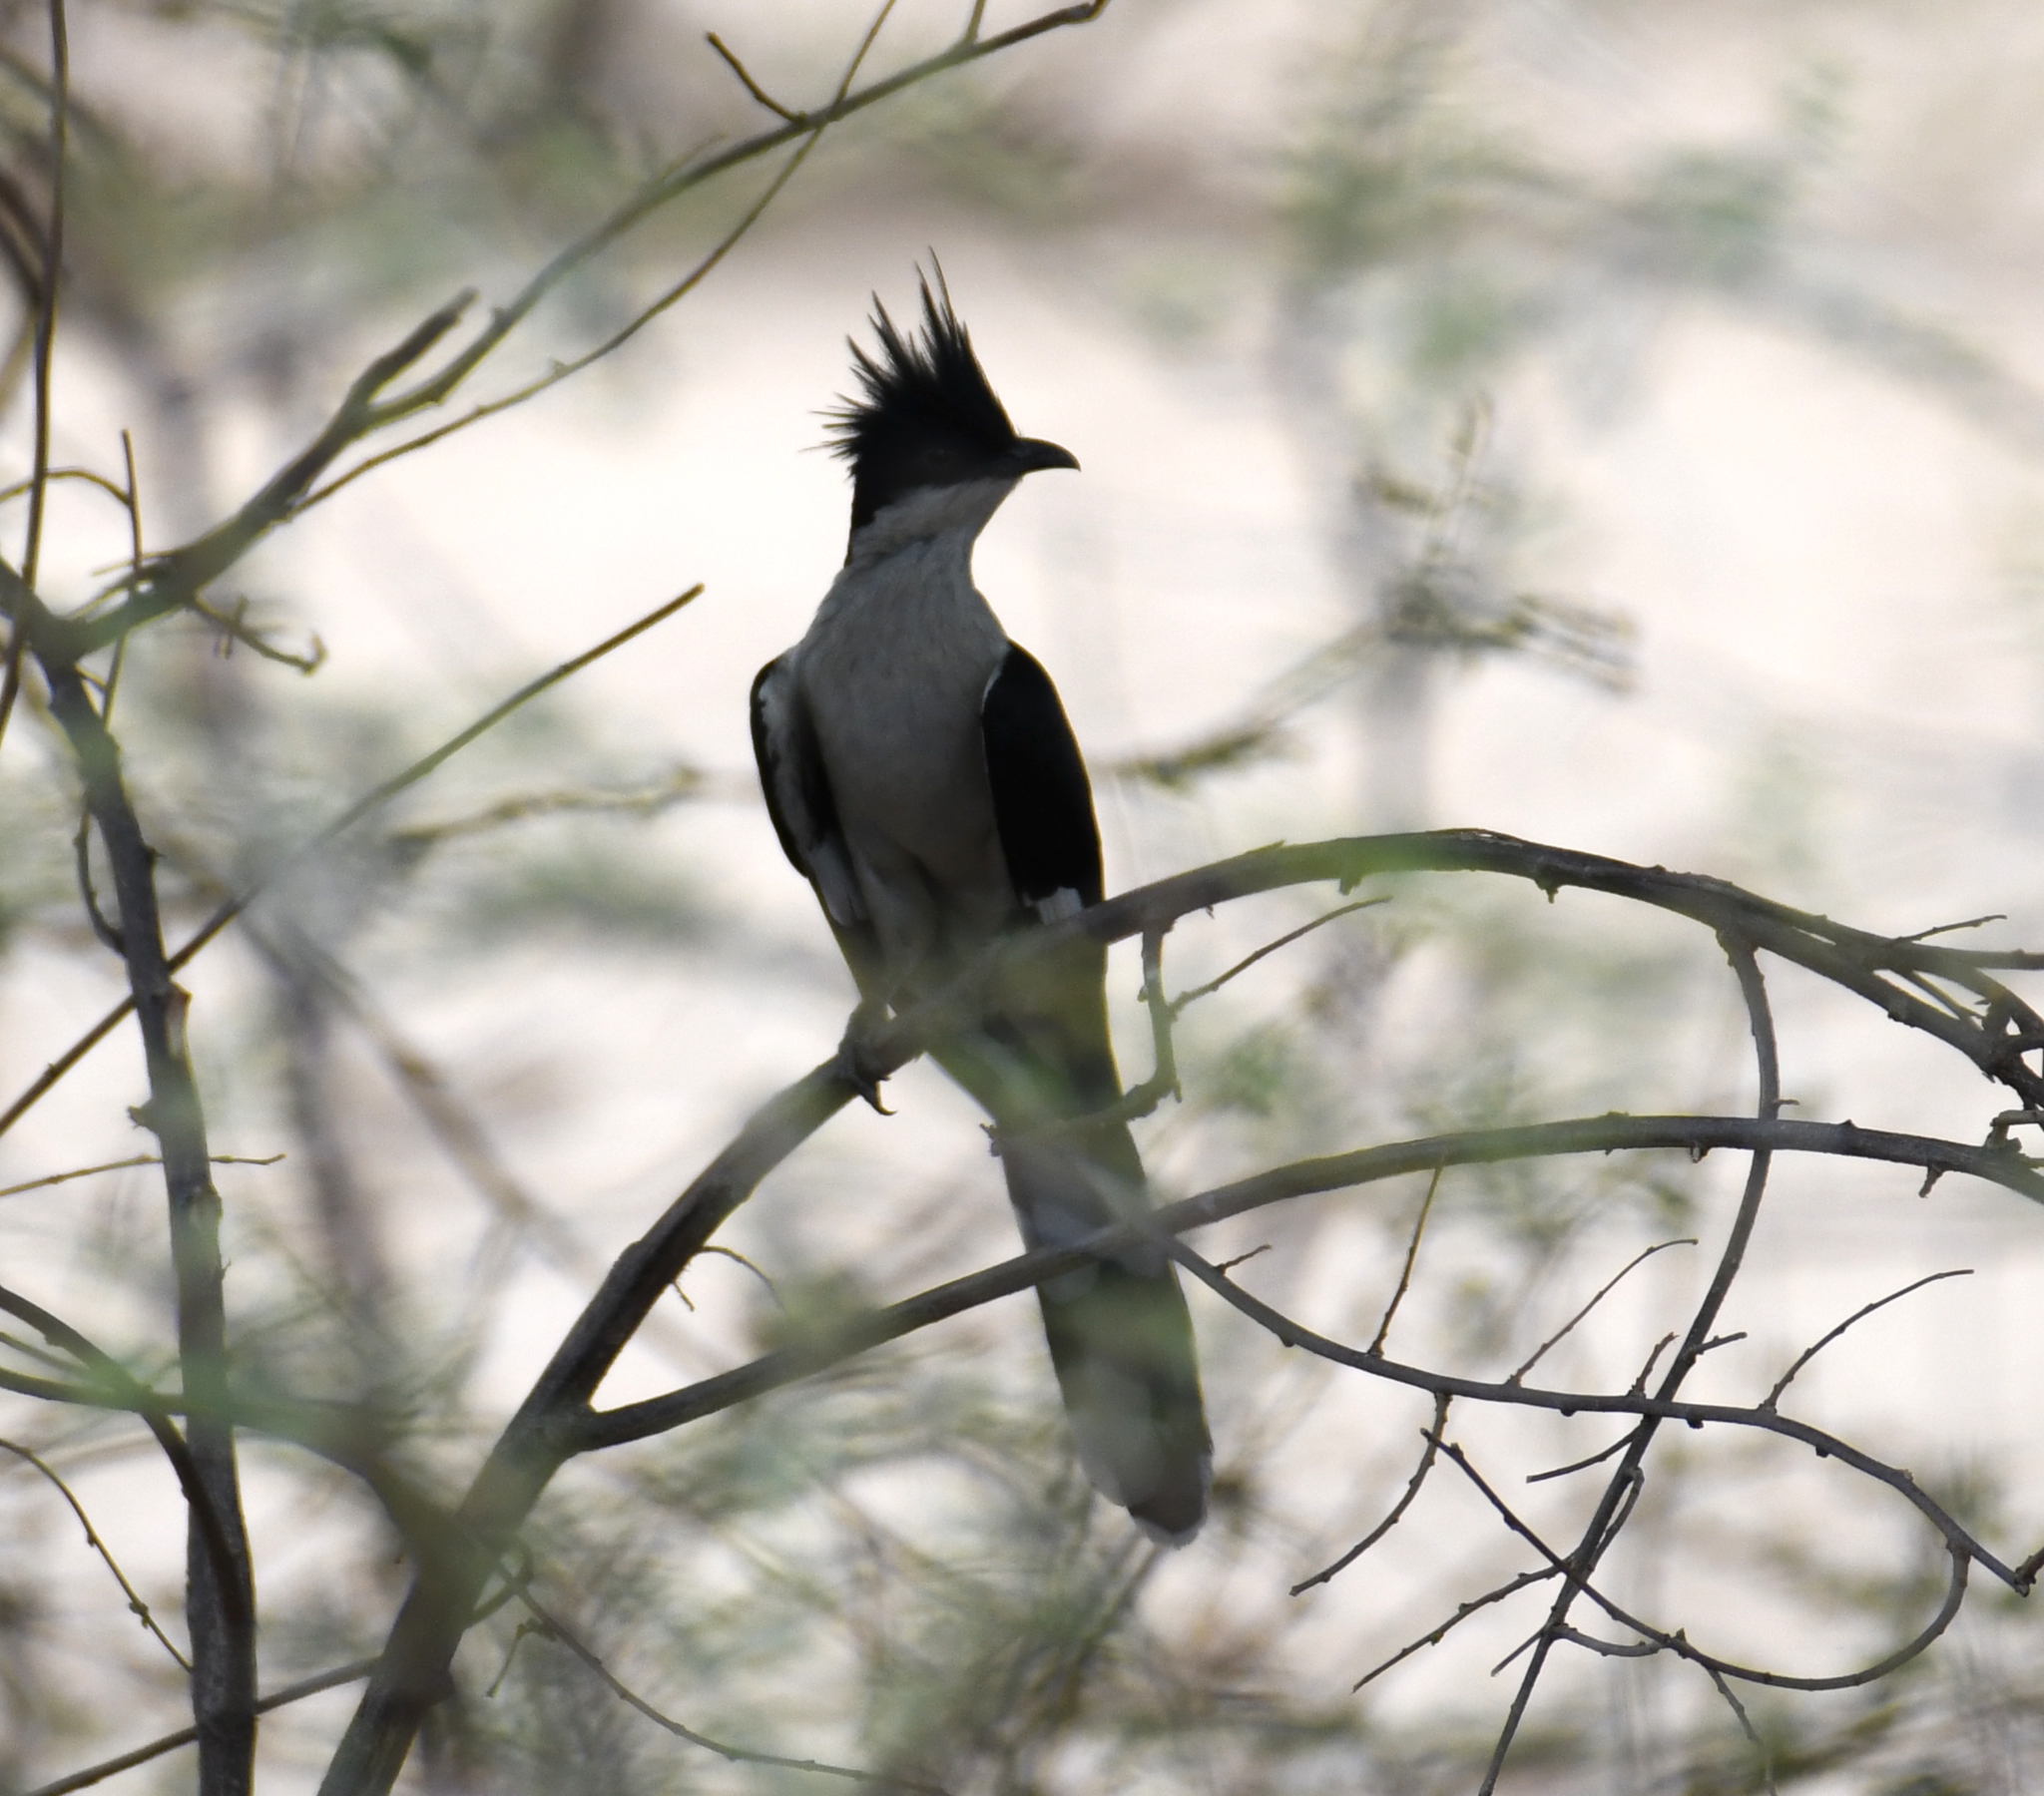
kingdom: Animalia
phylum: Chordata
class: Aves
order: Cuculiformes
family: Cuculidae
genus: Clamator
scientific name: Clamator jacobinus
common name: Jacobin cuckoo
